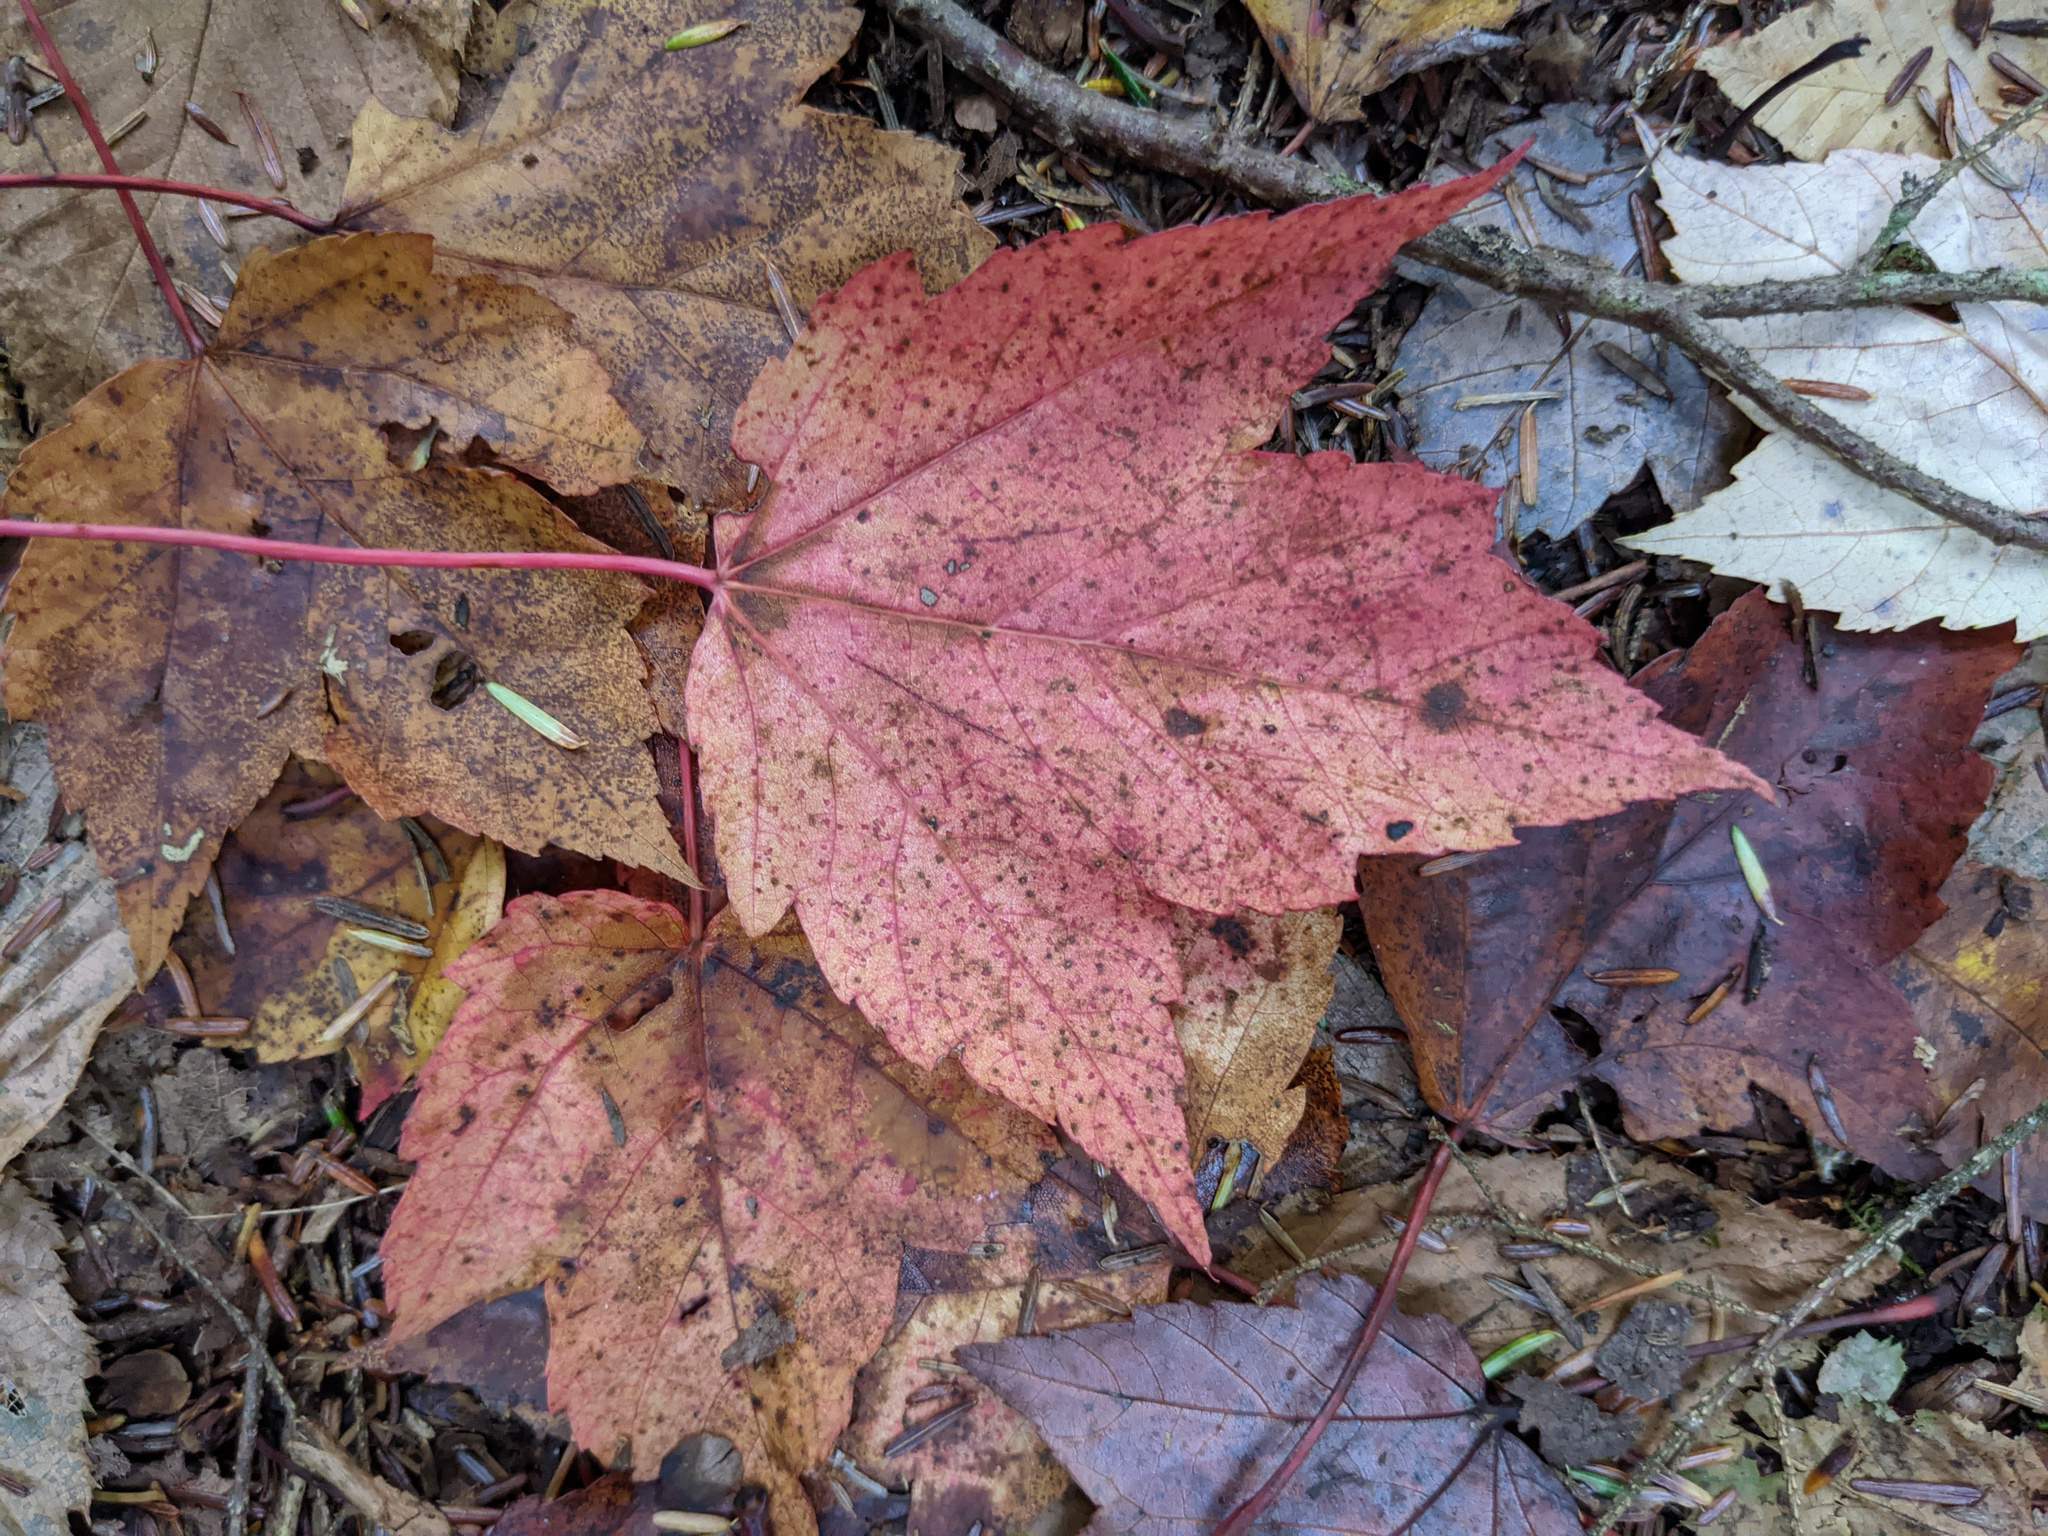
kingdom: Plantae
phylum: Tracheophyta
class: Magnoliopsida
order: Sapindales
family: Sapindaceae
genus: Acer
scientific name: Acer rubrum
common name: Red maple
